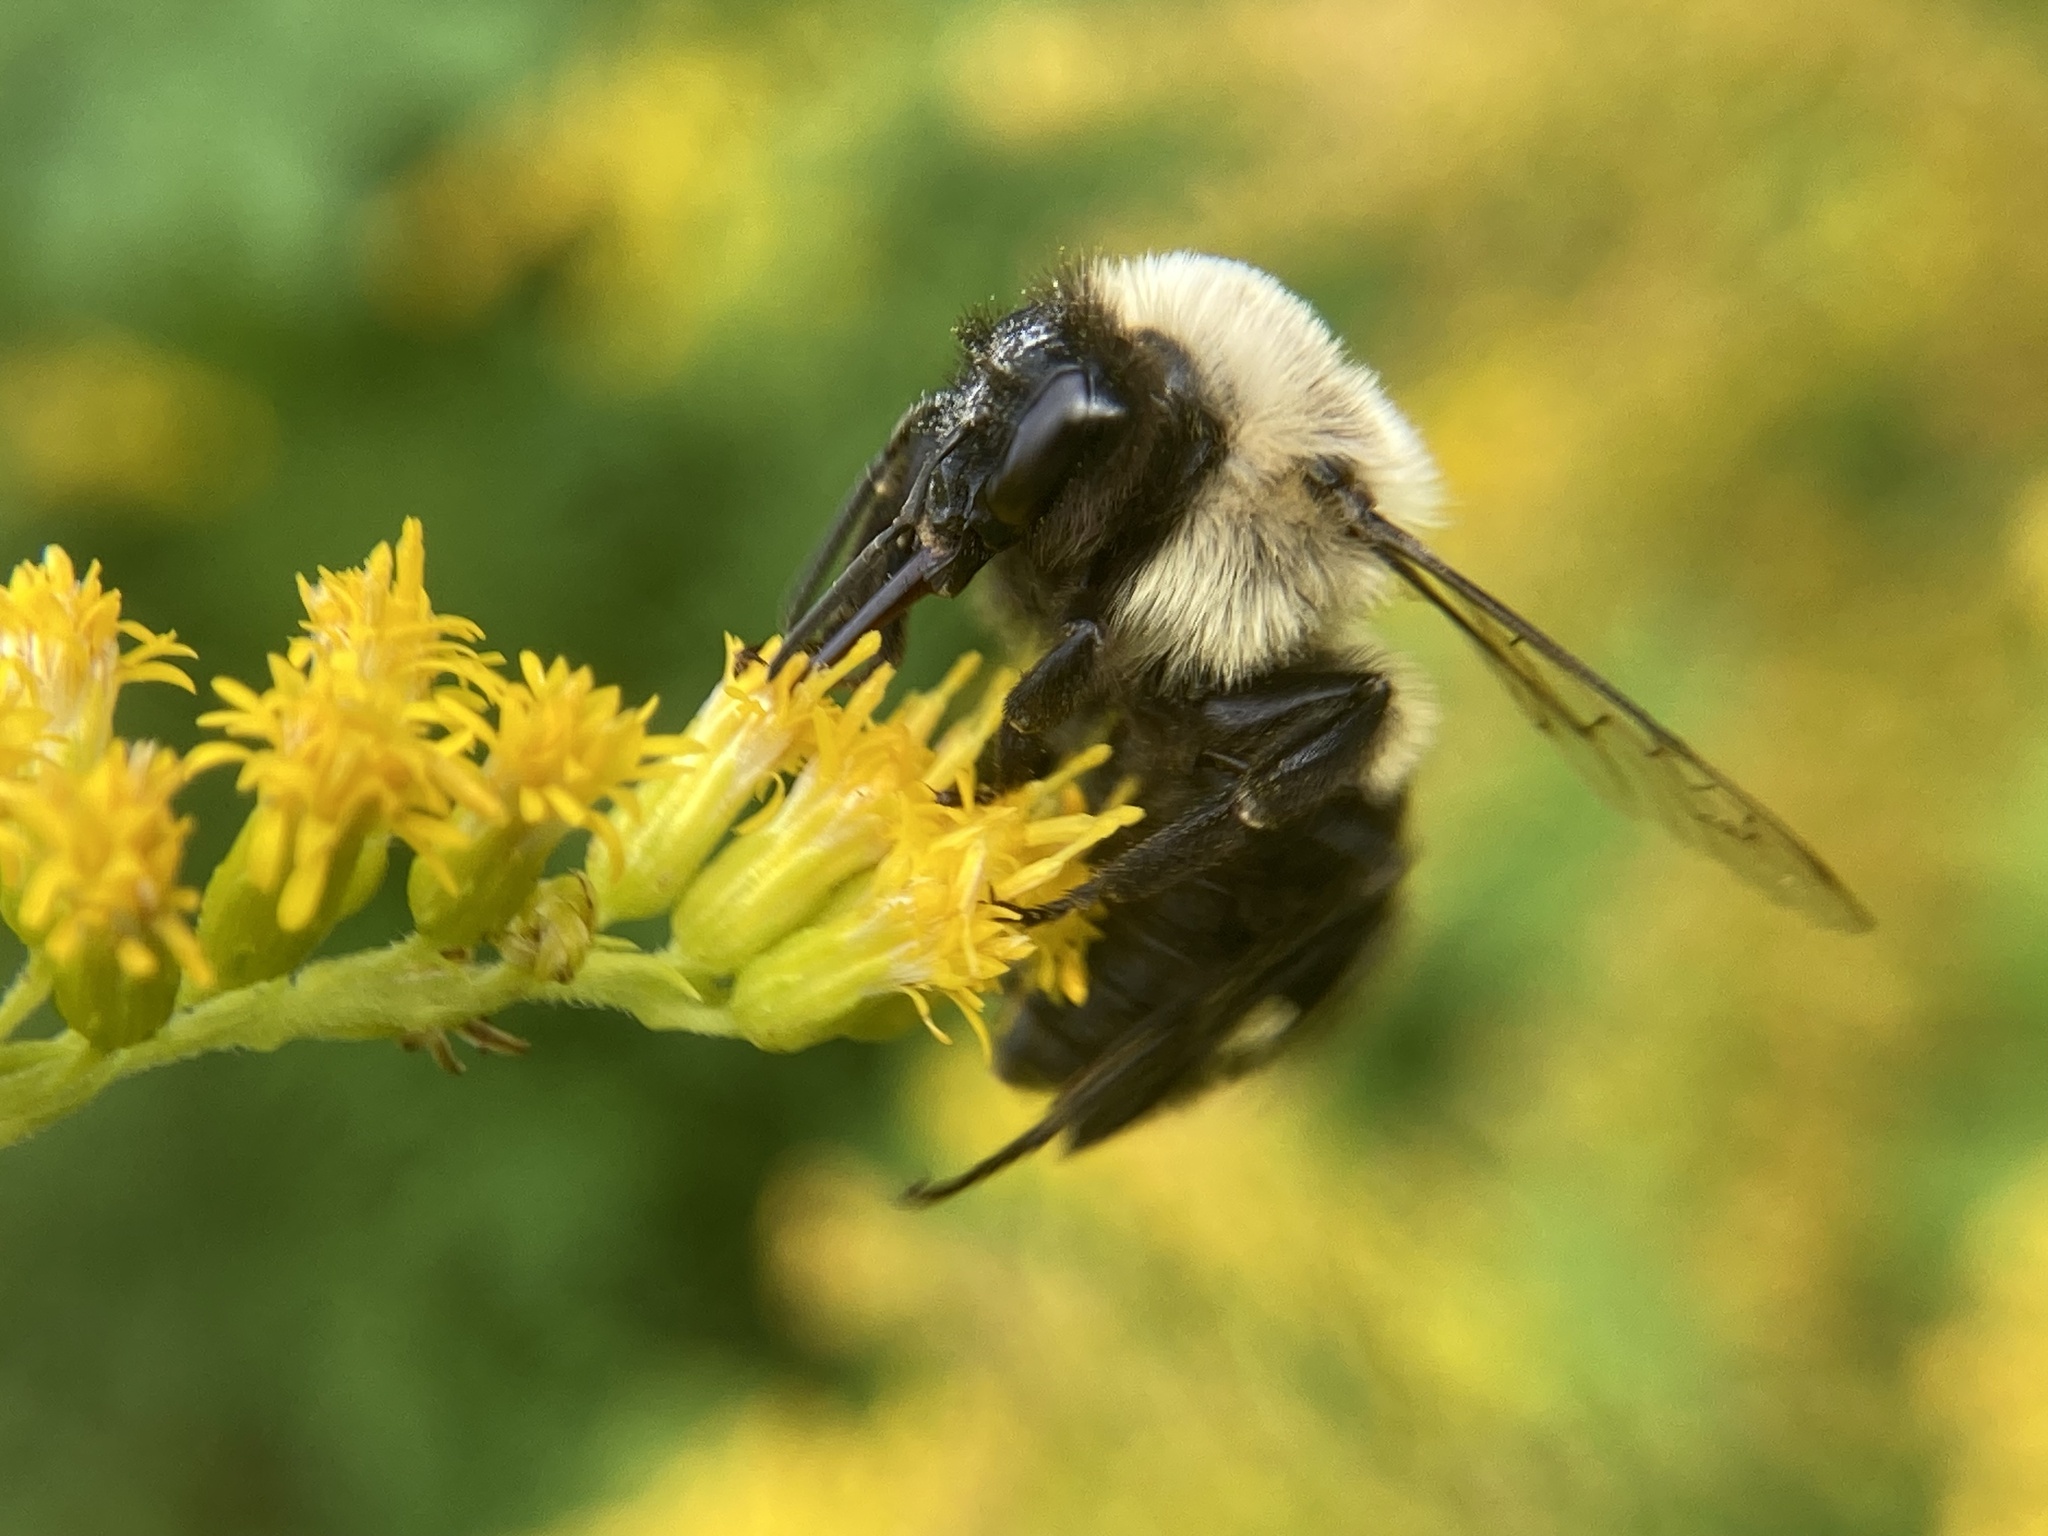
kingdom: Animalia
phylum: Arthropoda
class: Insecta
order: Hymenoptera
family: Apidae
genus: Bombus
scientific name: Bombus impatiens
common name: Common eastern bumble bee
